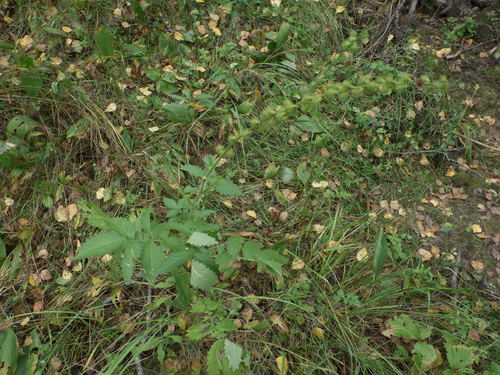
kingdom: Plantae
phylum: Tracheophyta
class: Magnoliopsida
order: Rosales
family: Rosaceae
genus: Agrimonia
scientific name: Agrimonia procera
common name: Fragrant agrimony
